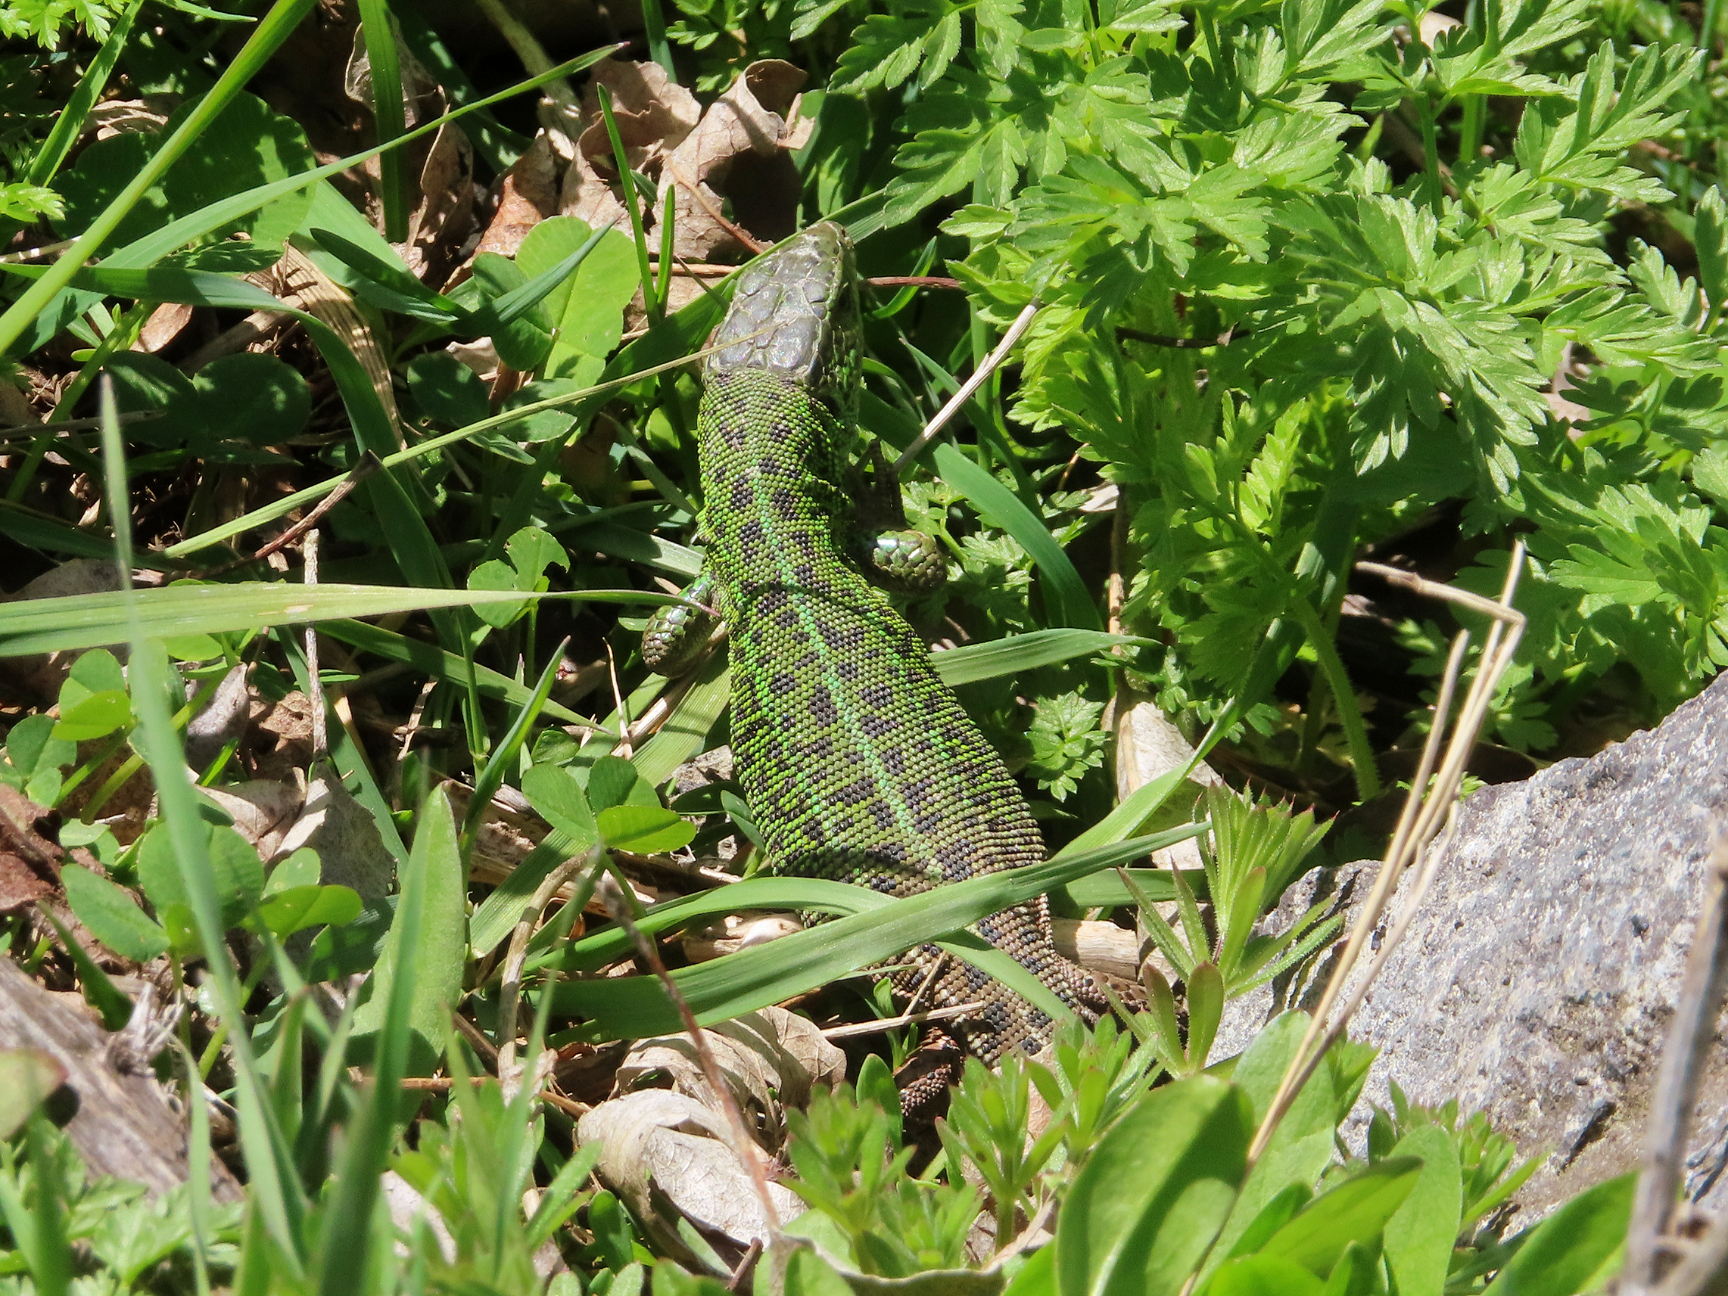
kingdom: Animalia
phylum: Chordata
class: Squamata
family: Lacertidae
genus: Lacerta
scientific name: Lacerta strigata
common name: Caspian green lizard
